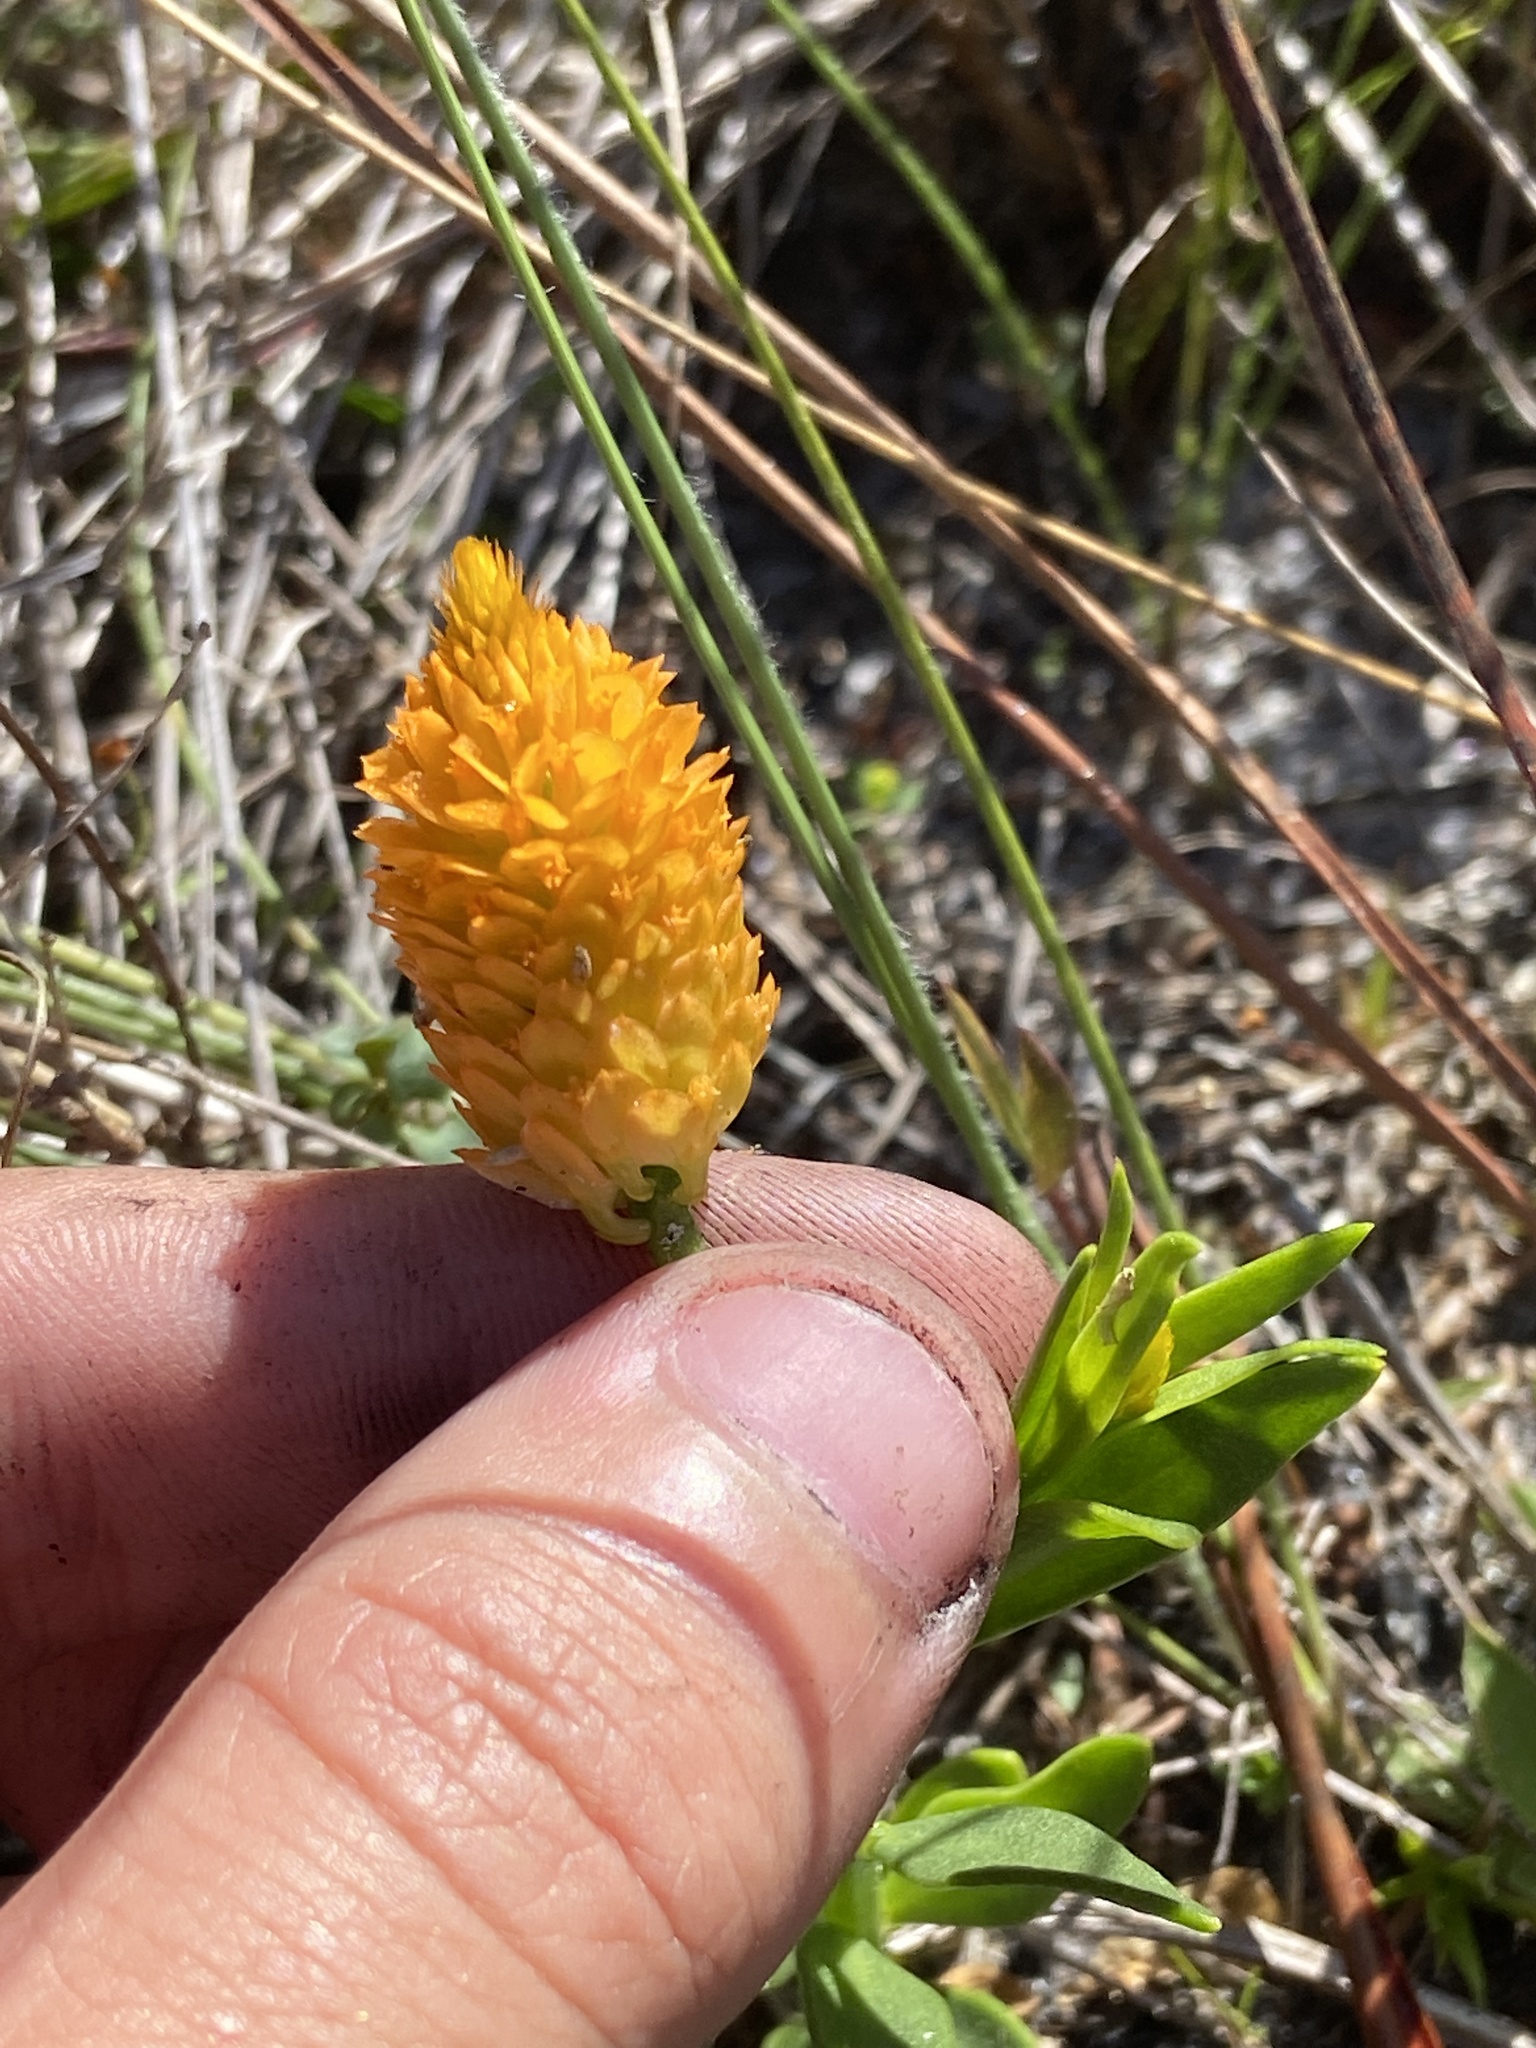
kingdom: Plantae
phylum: Tracheophyta
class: Magnoliopsida
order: Fabales
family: Polygalaceae
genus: Polygala
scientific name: Polygala lutea
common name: Orange milkwort
